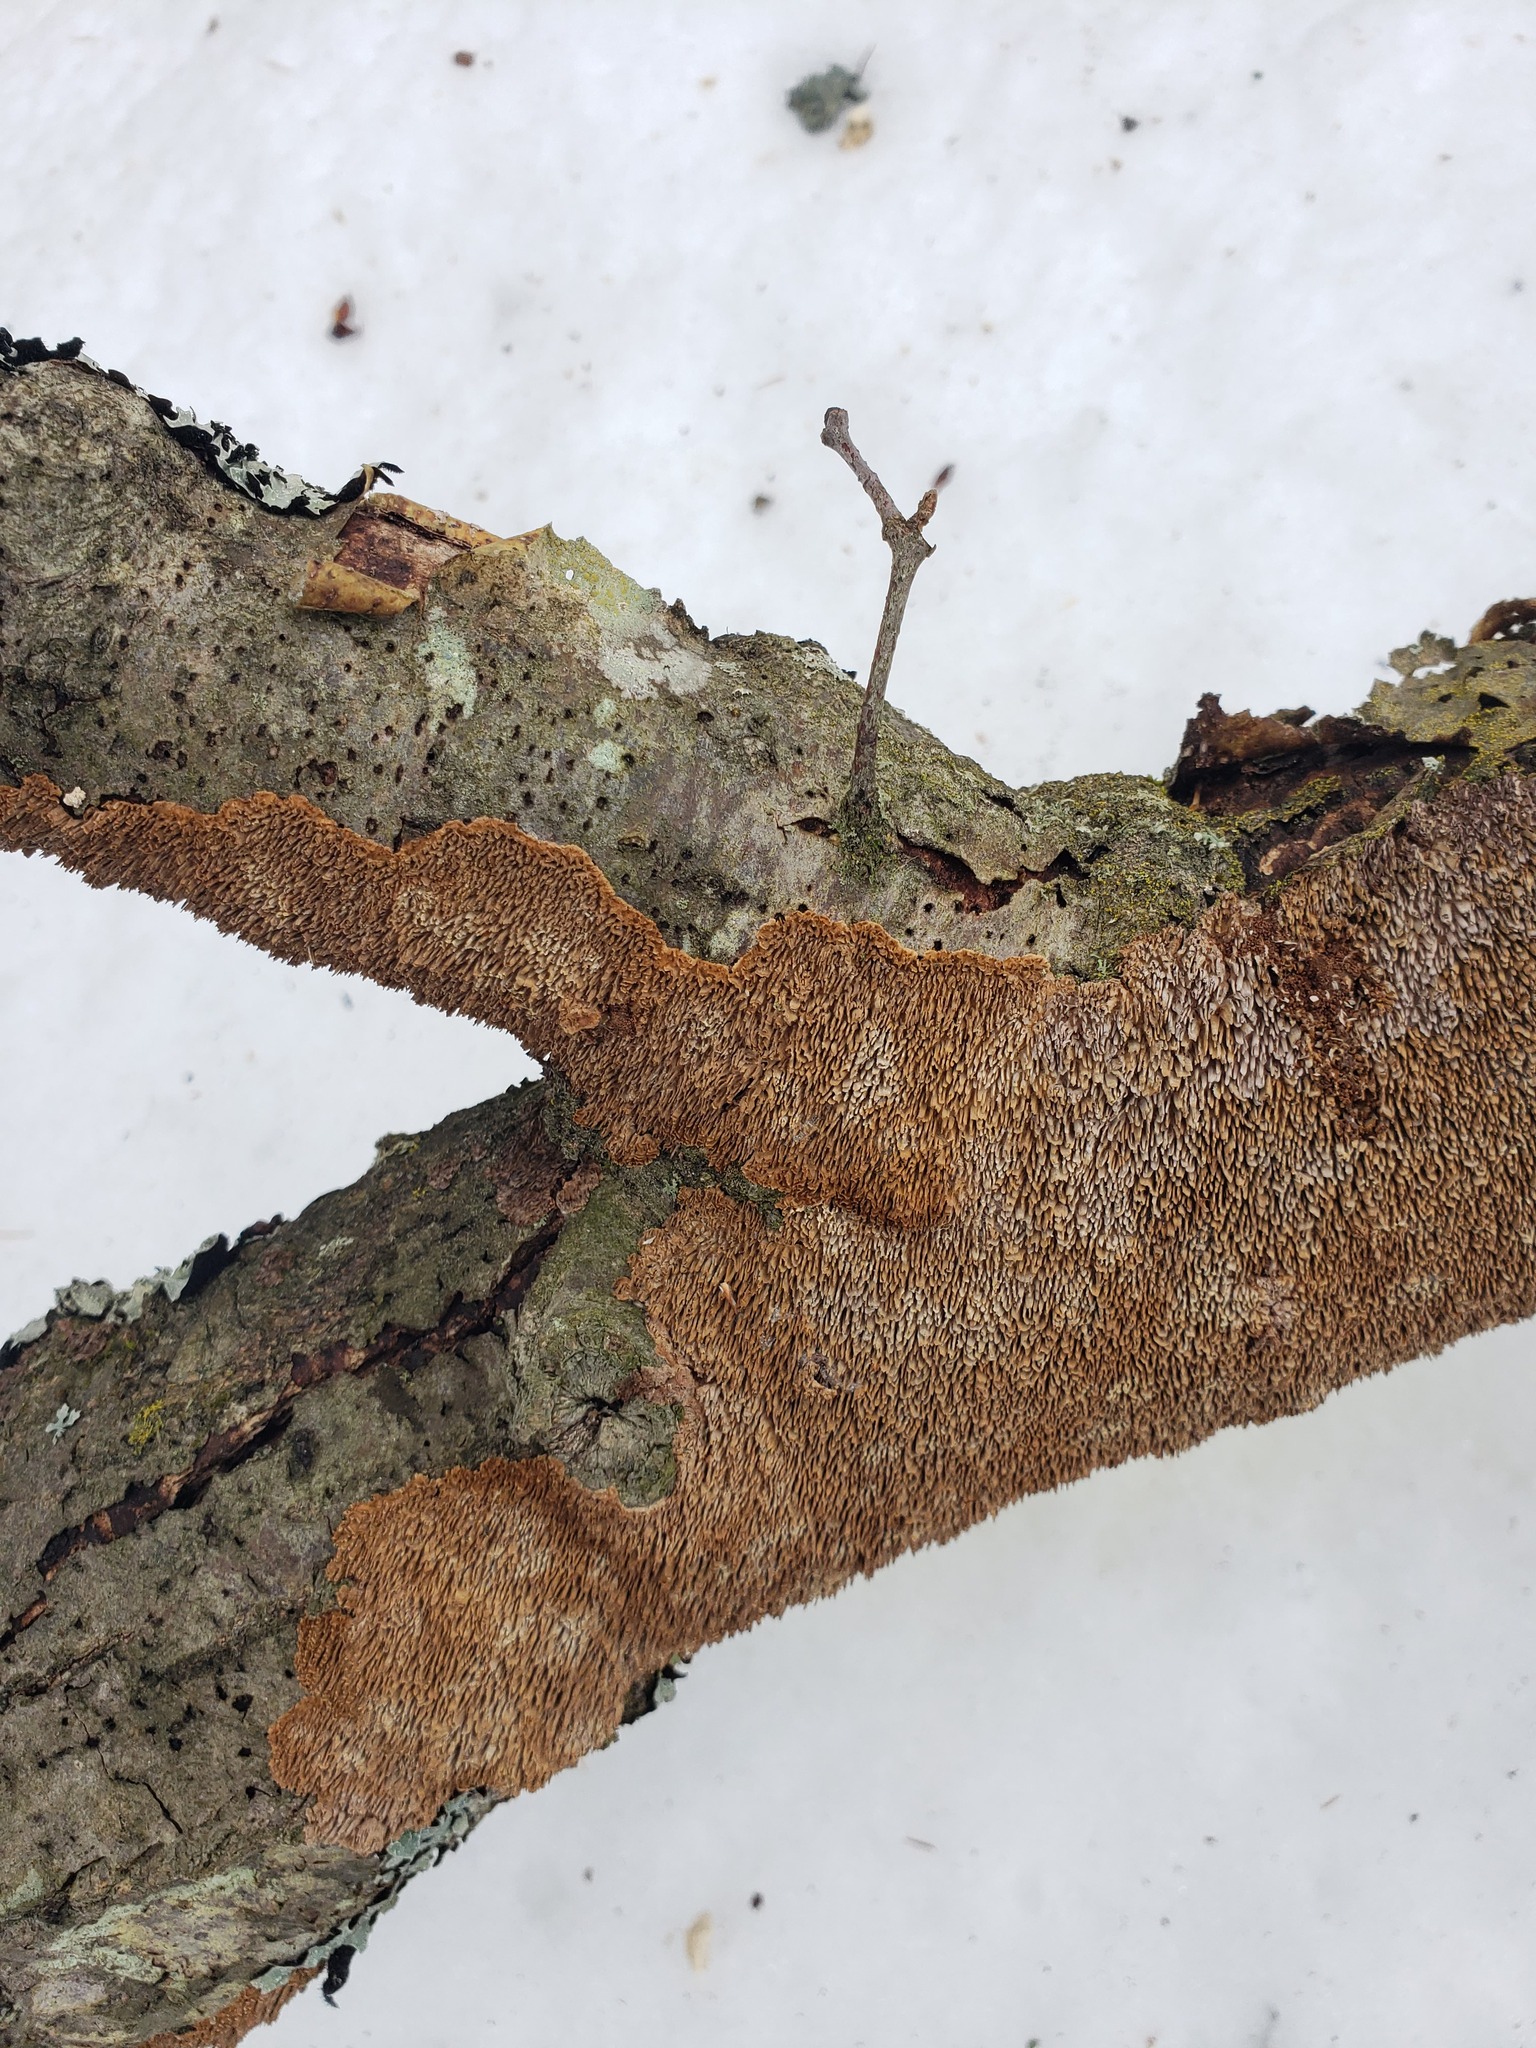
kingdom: Fungi
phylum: Basidiomycota
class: Agaricomycetes
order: Hymenochaetales
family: Hymenochaetaceae
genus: Hydnoporia
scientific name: Hydnoporia olivacea
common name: Brown-toothed crust fungus
